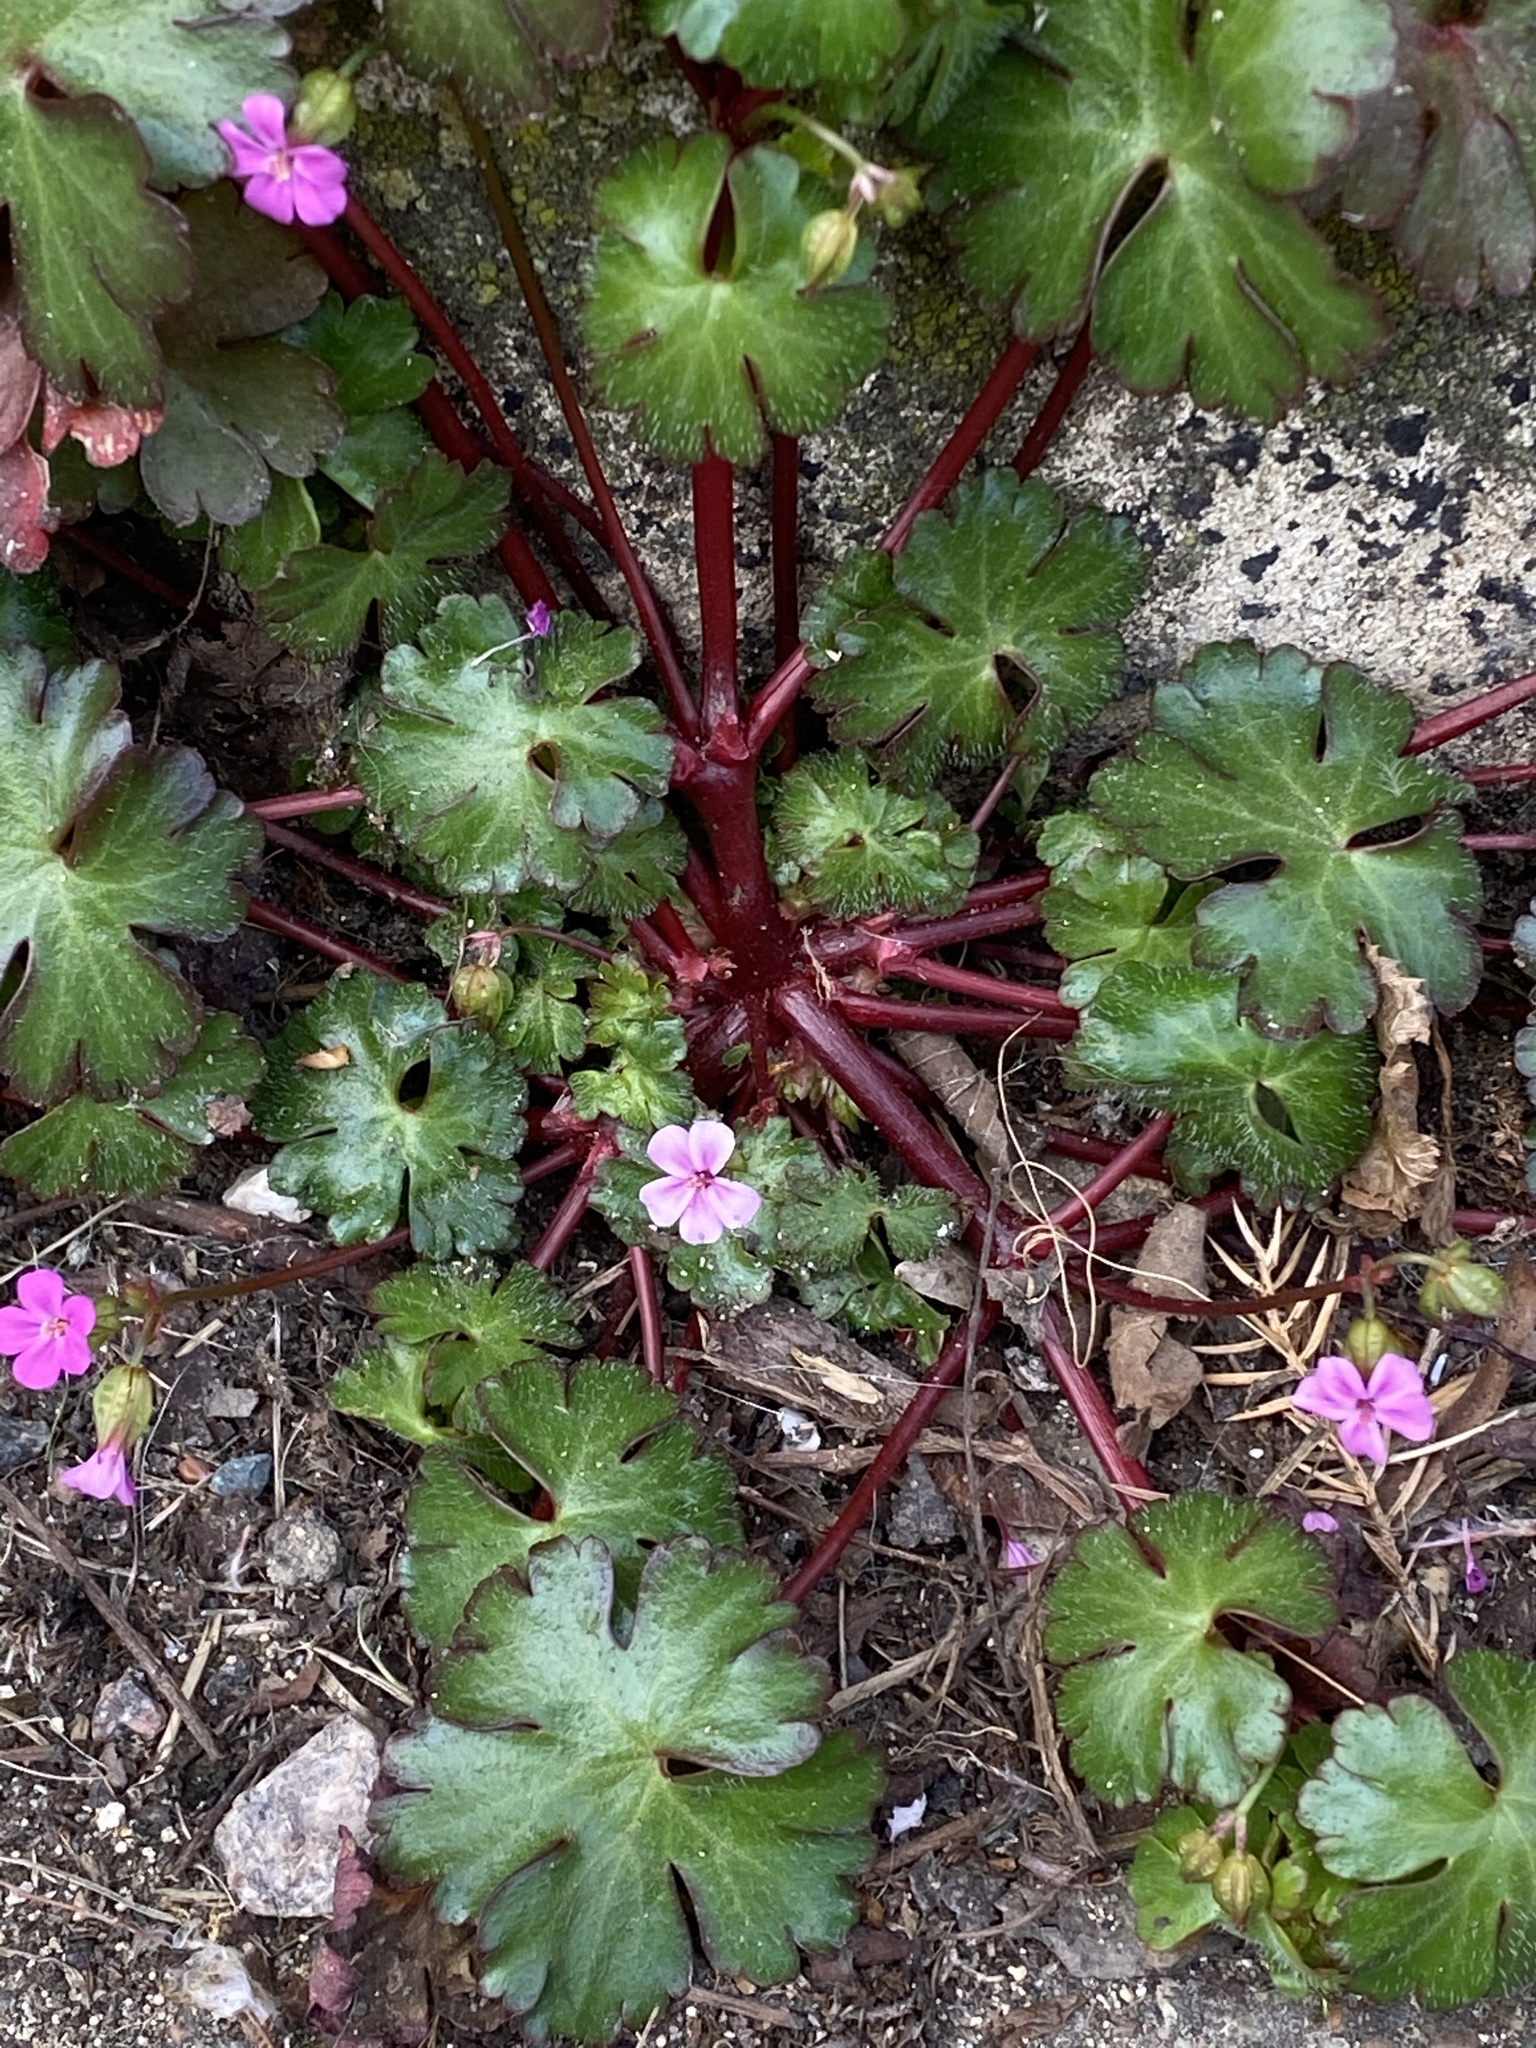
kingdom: Plantae
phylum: Tracheophyta
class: Magnoliopsida
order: Geraniales
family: Geraniaceae
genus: Geranium
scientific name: Geranium lucidum
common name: Shining crane's-bill
